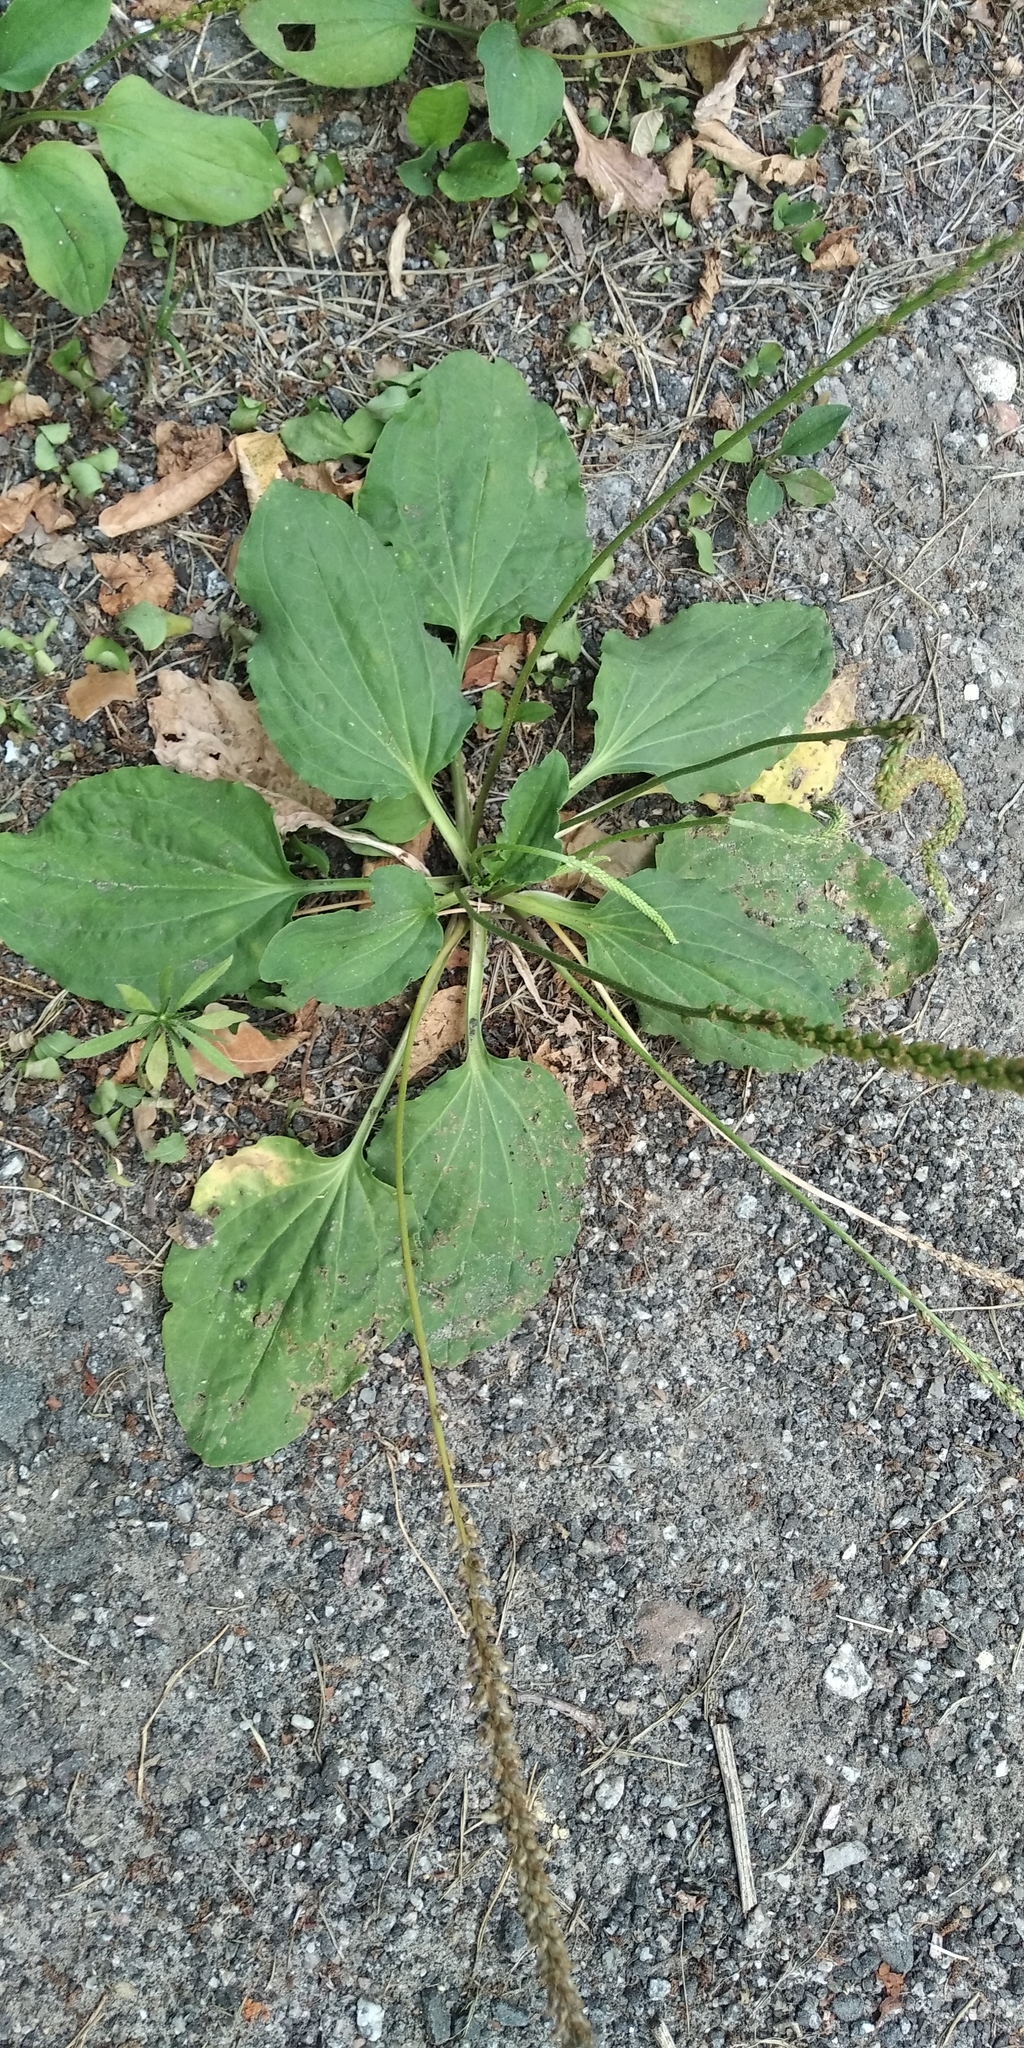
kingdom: Plantae
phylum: Tracheophyta
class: Magnoliopsida
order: Lamiales
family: Plantaginaceae
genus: Plantago
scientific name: Plantago major
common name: Common plantain
